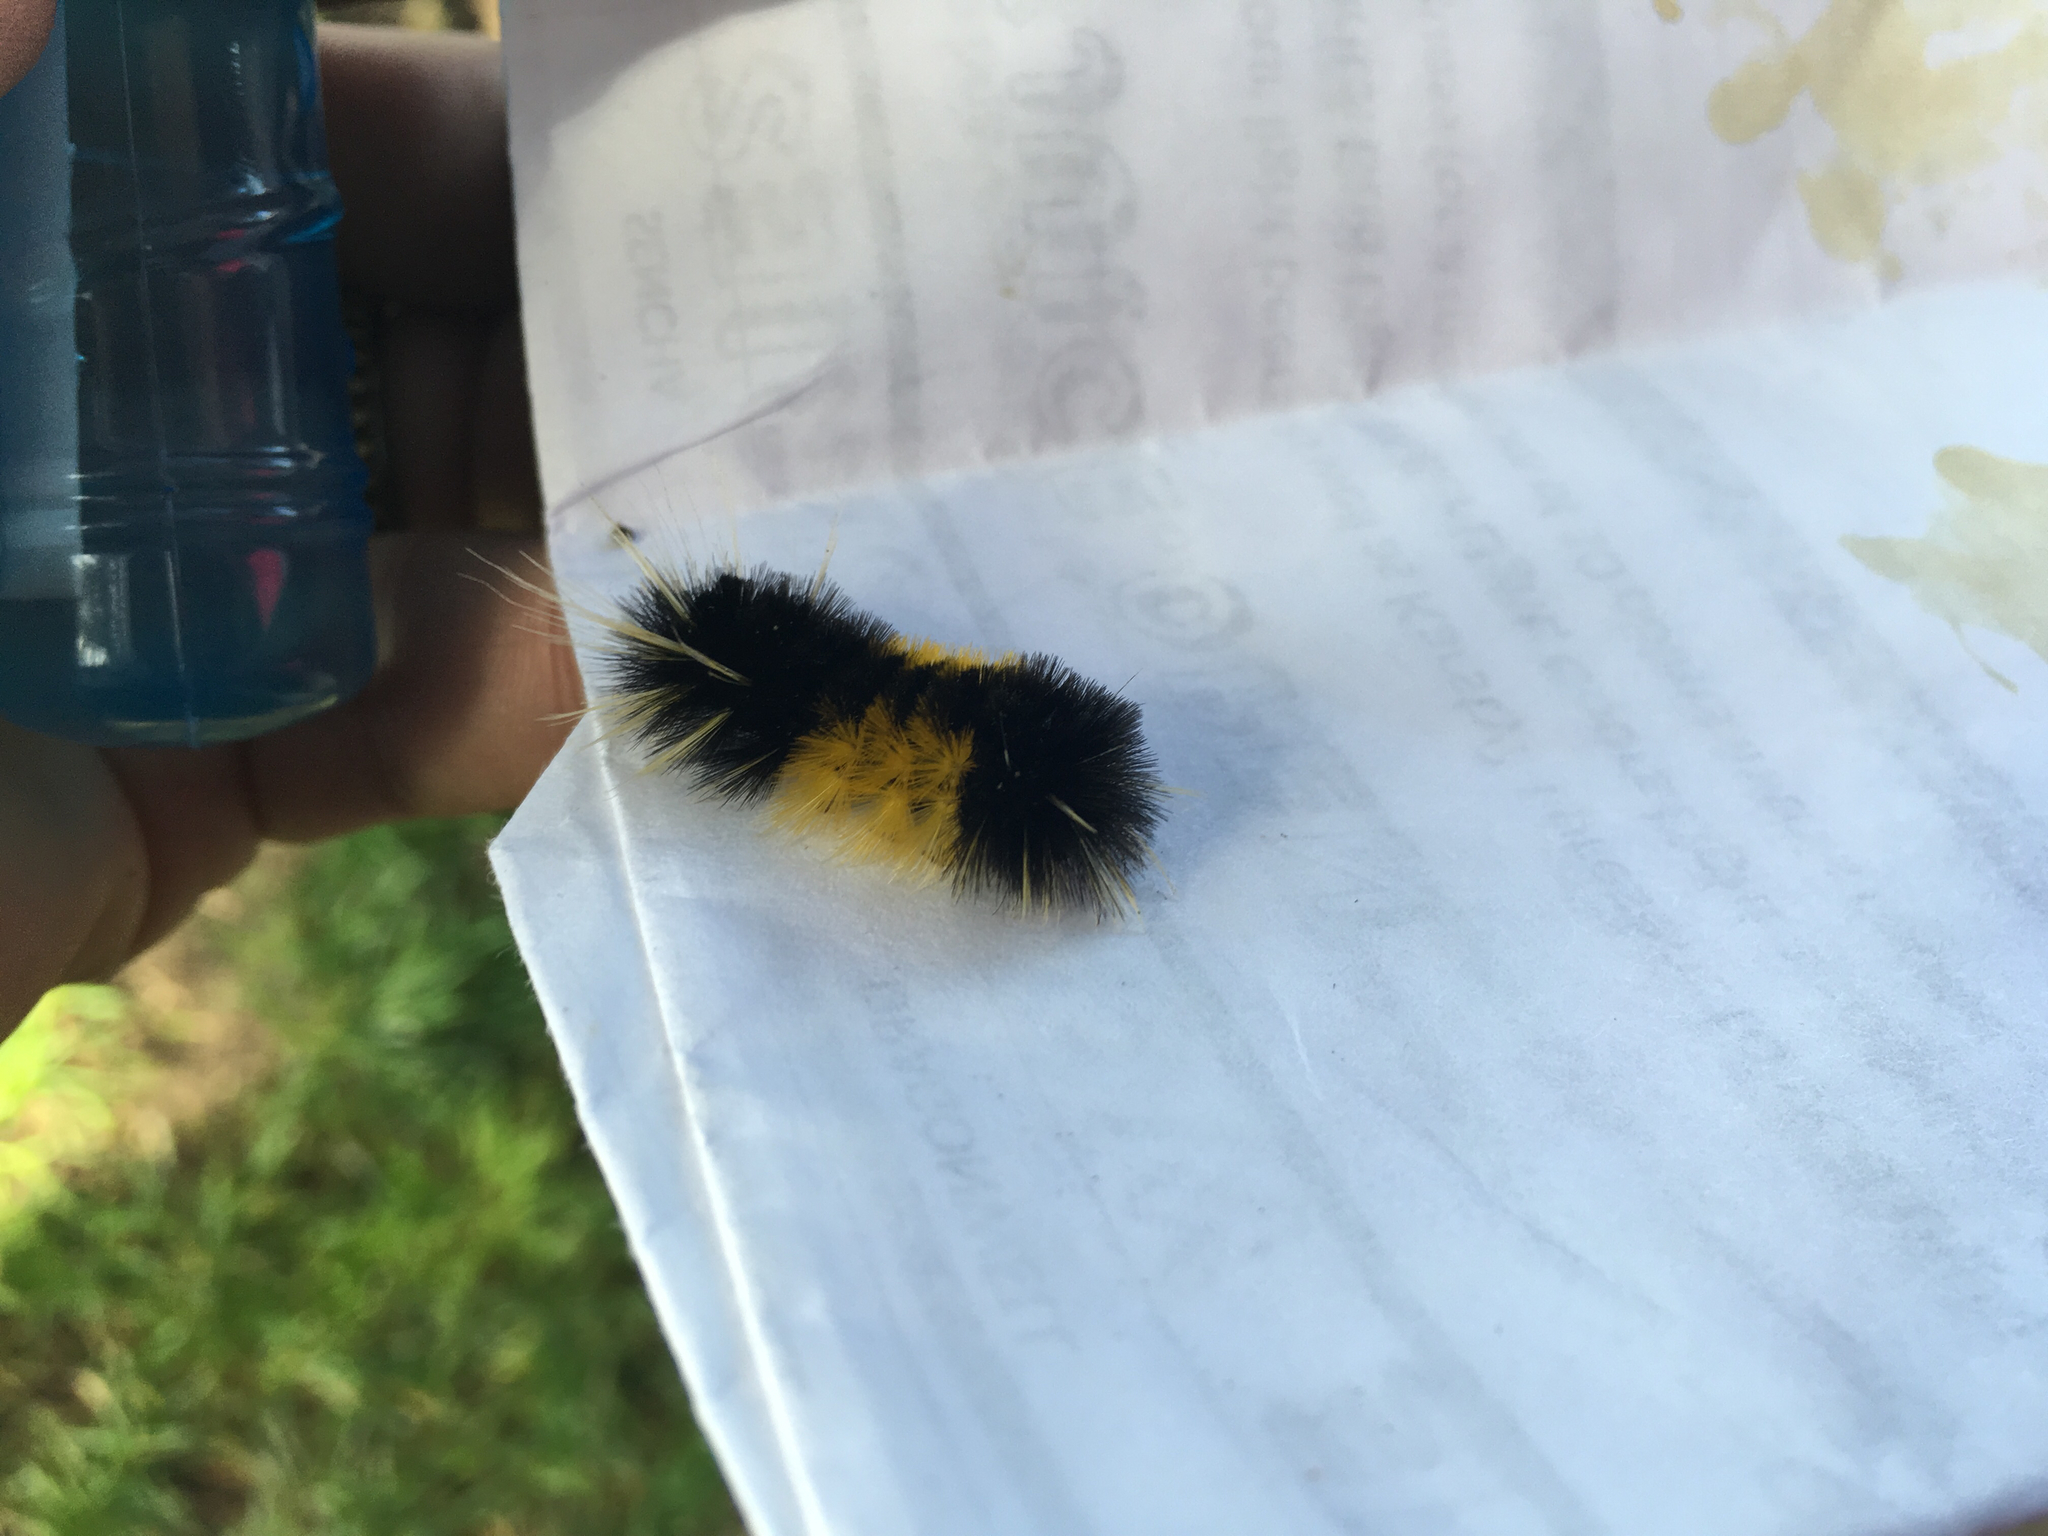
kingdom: Animalia
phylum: Arthropoda
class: Insecta
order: Lepidoptera
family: Erebidae
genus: Lophocampa
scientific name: Lophocampa maculata
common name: Spotted tussock moth
